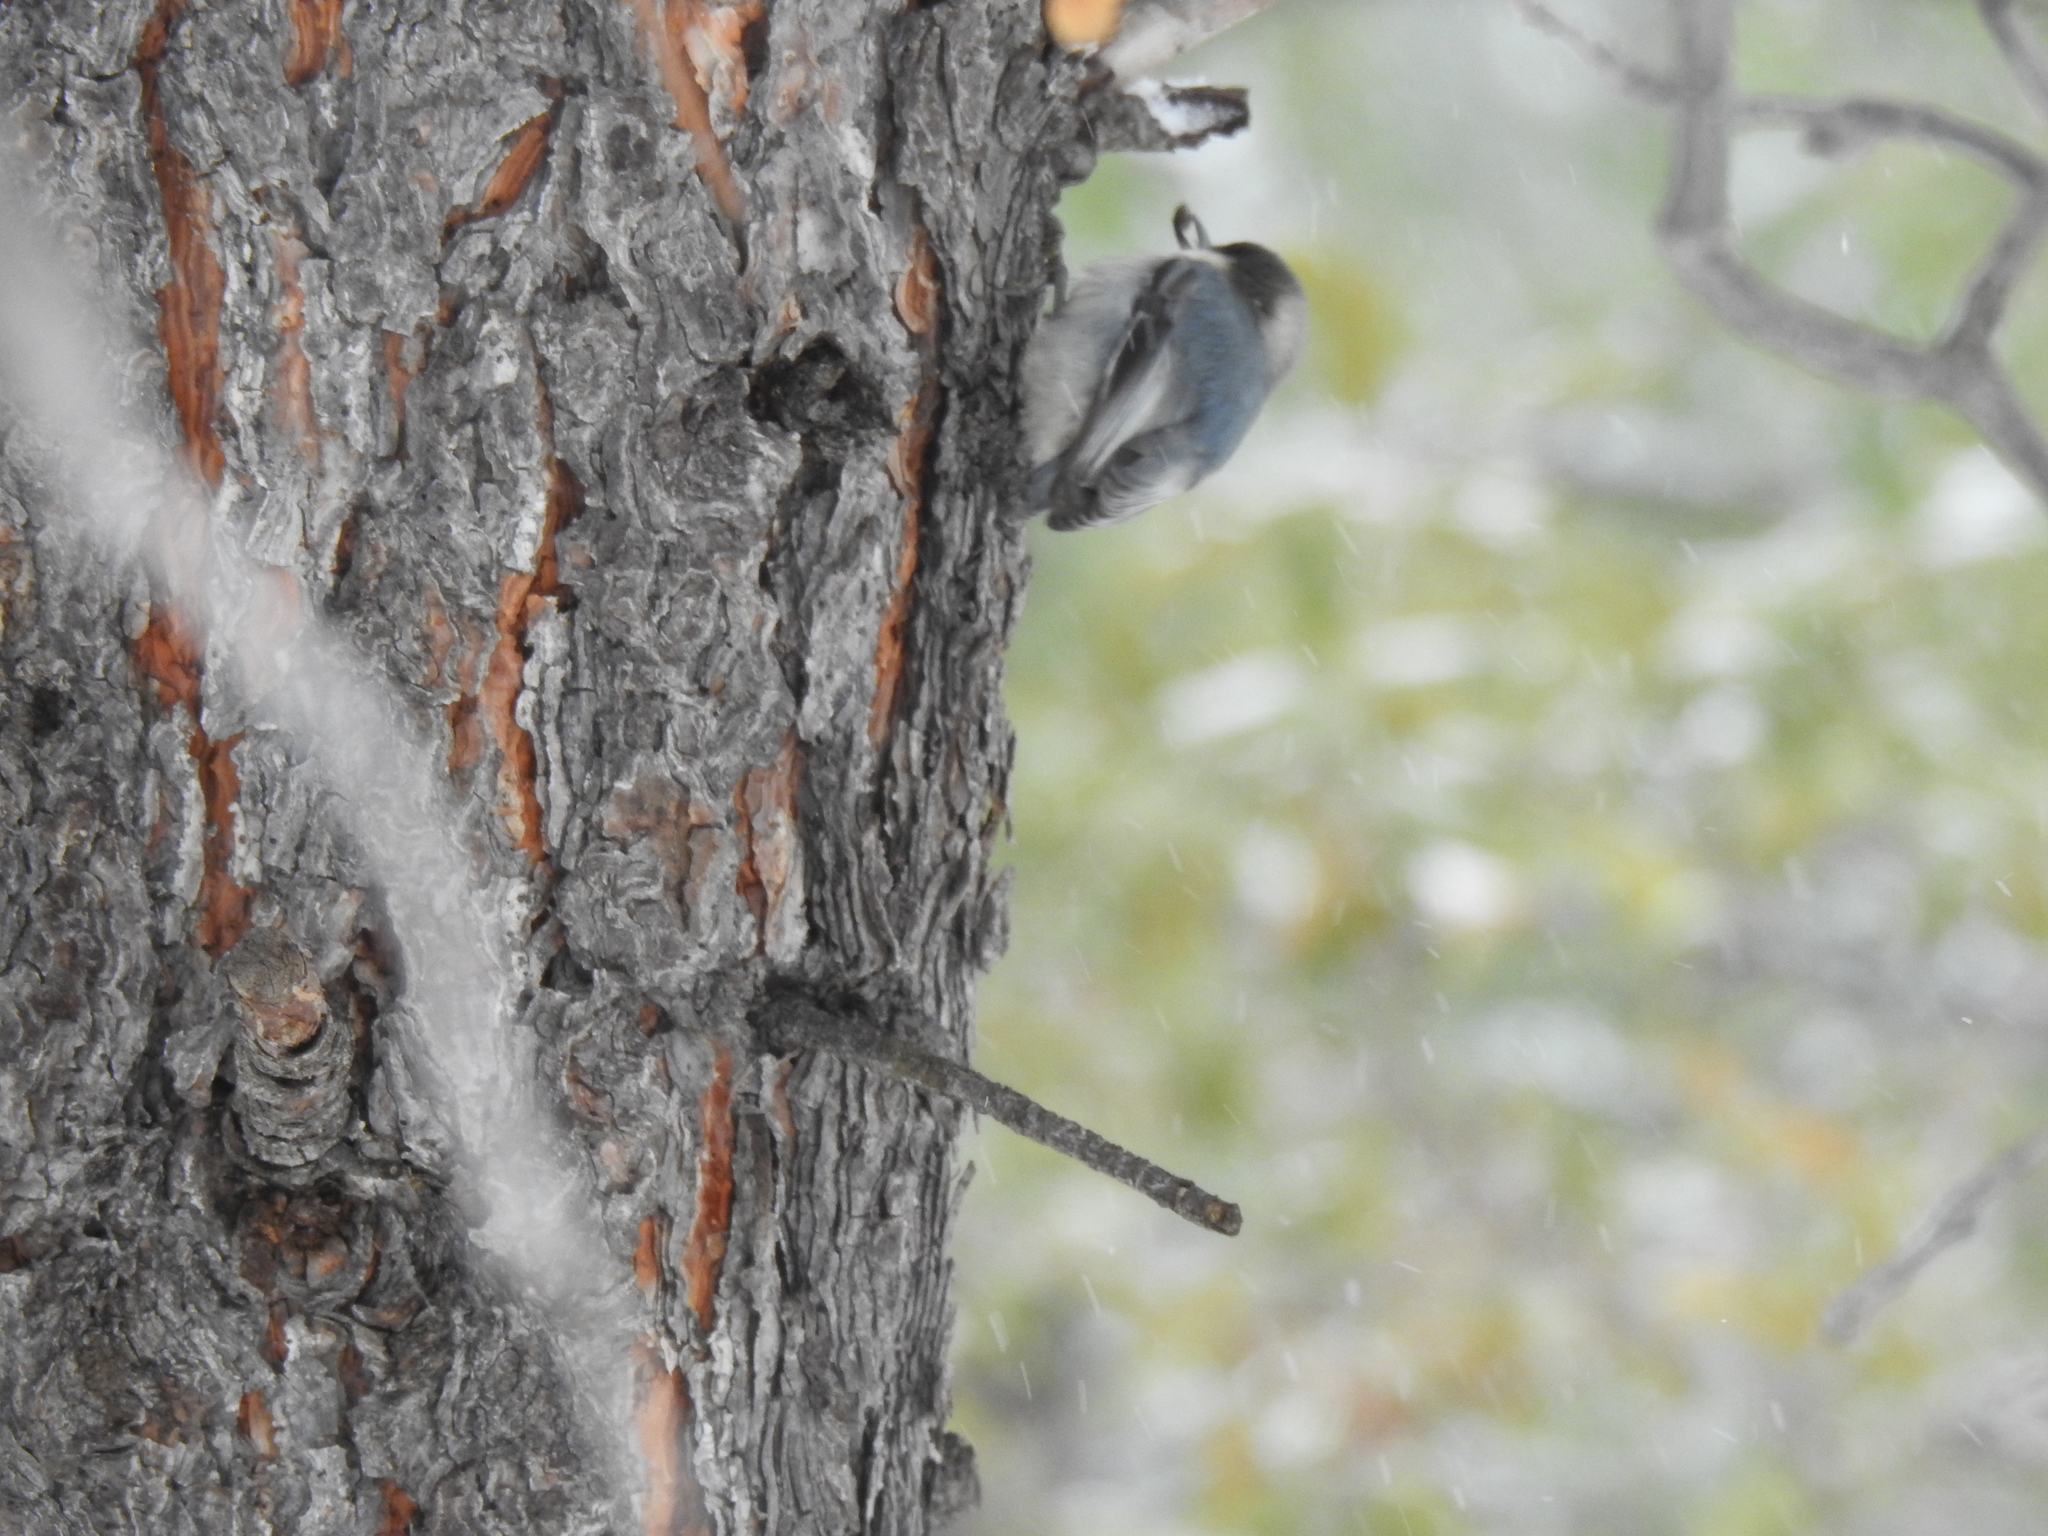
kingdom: Animalia
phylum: Chordata
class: Aves
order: Passeriformes
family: Sittidae
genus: Sitta
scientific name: Sitta pygmaea
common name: Pygmy nuthatch
